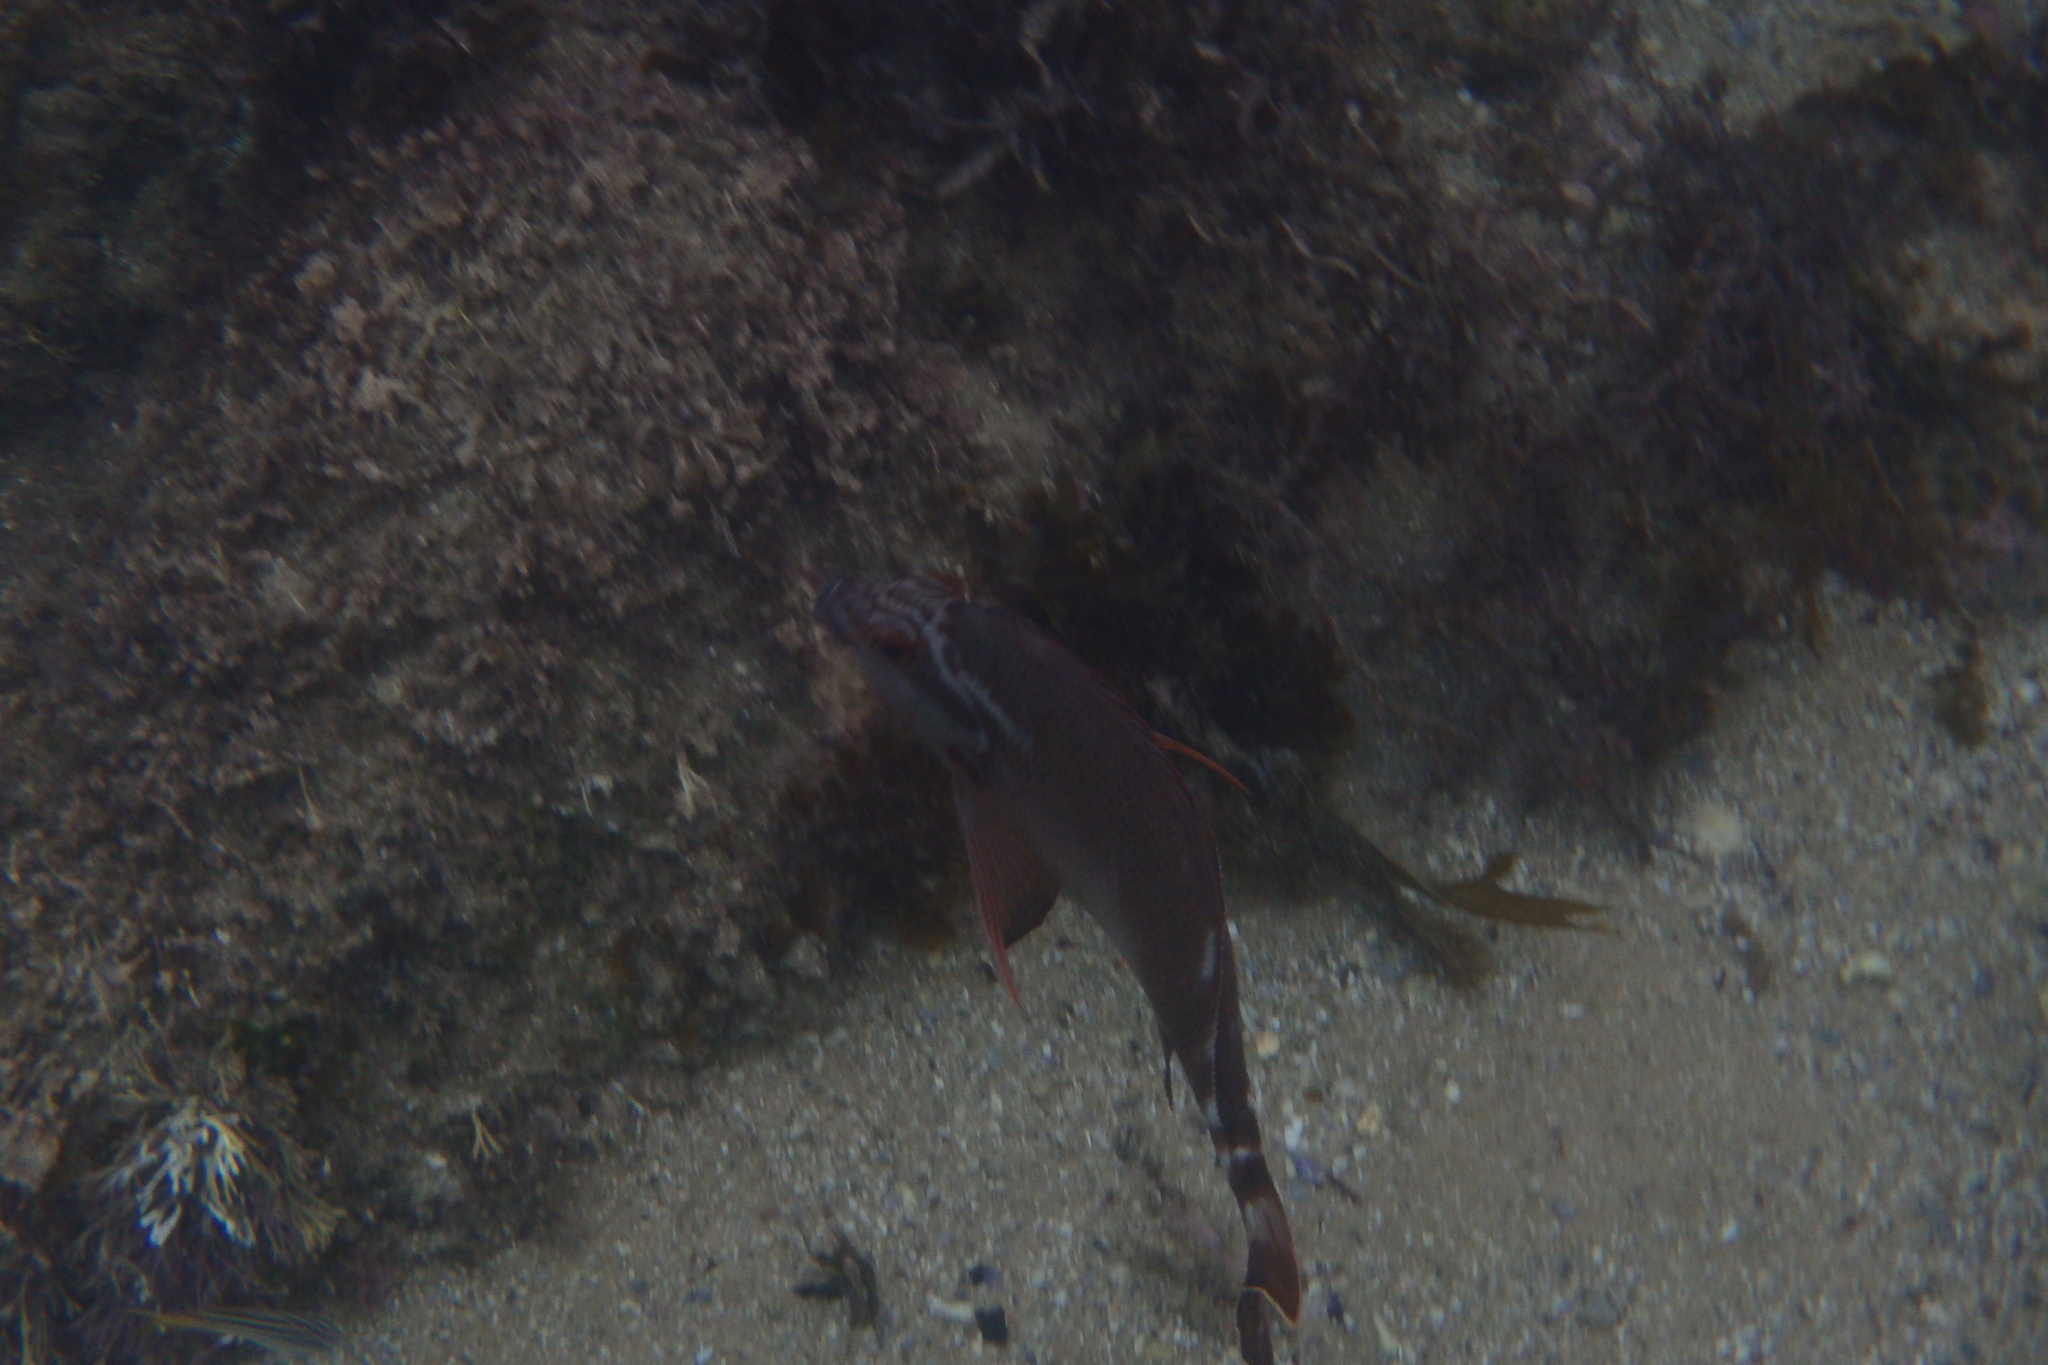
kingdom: Animalia
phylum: Chordata
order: Perciformes
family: Latridae
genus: Morwong
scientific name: Morwong fuscus
